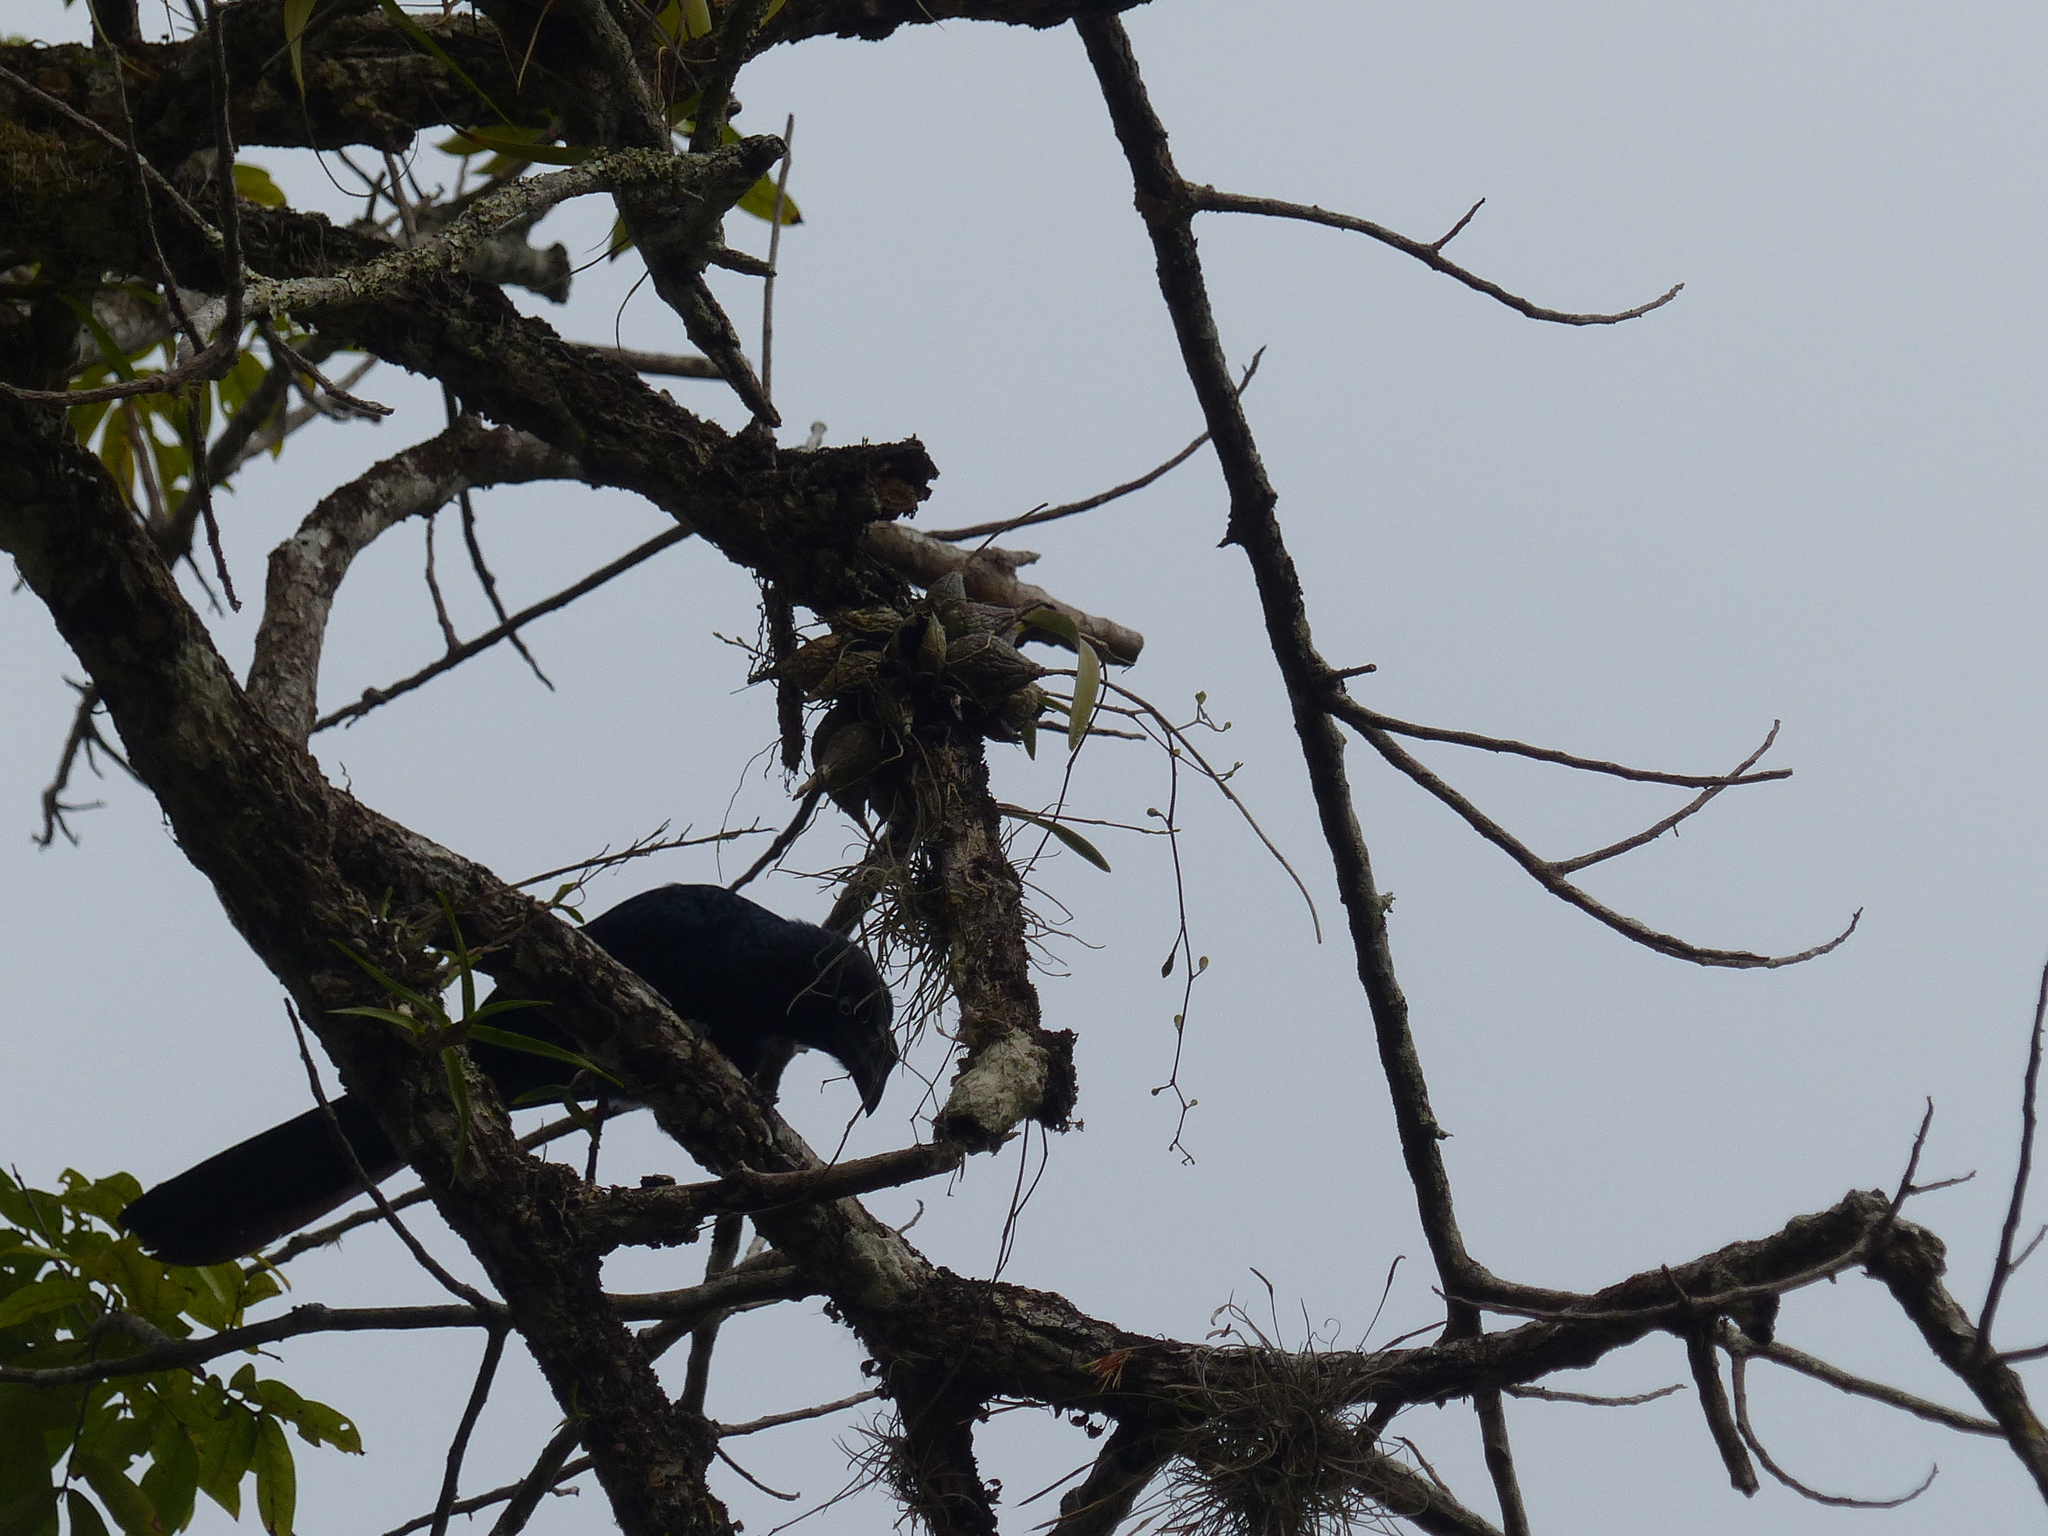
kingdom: Animalia
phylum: Chordata
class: Aves
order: Cuculiformes
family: Cuculidae
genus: Crotophaga
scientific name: Crotophaga major
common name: Greater ani
